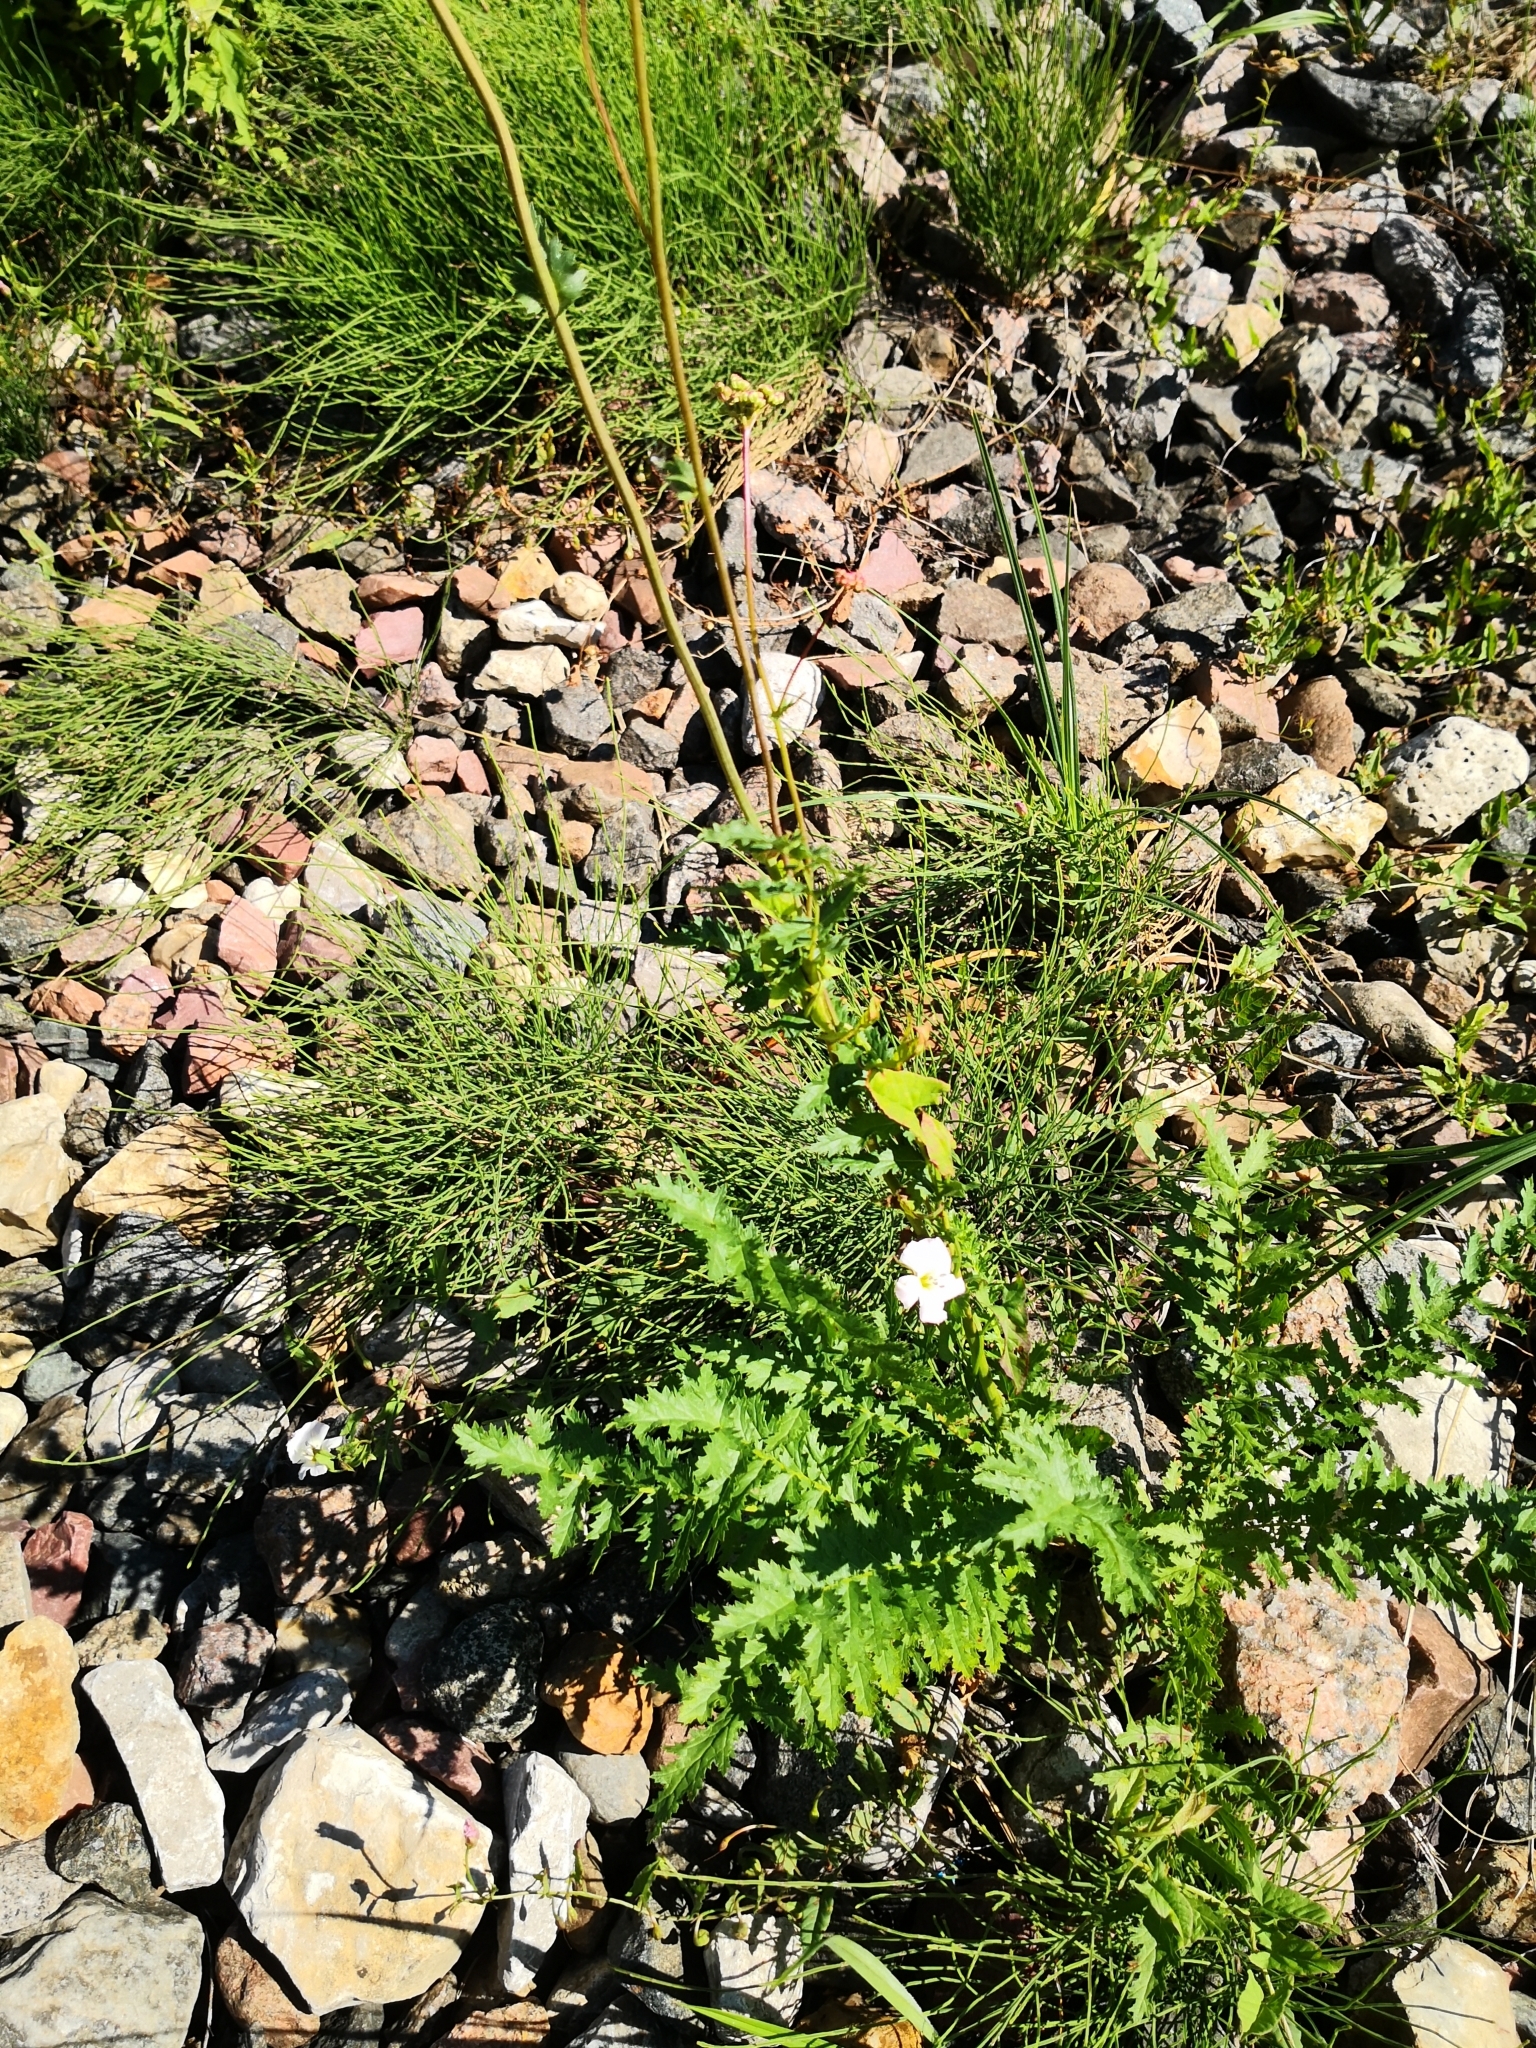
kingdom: Plantae
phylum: Tracheophyta
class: Magnoliopsida
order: Rosales
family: Rosaceae
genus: Filipendula
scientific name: Filipendula vulgaris
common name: Dropwort
